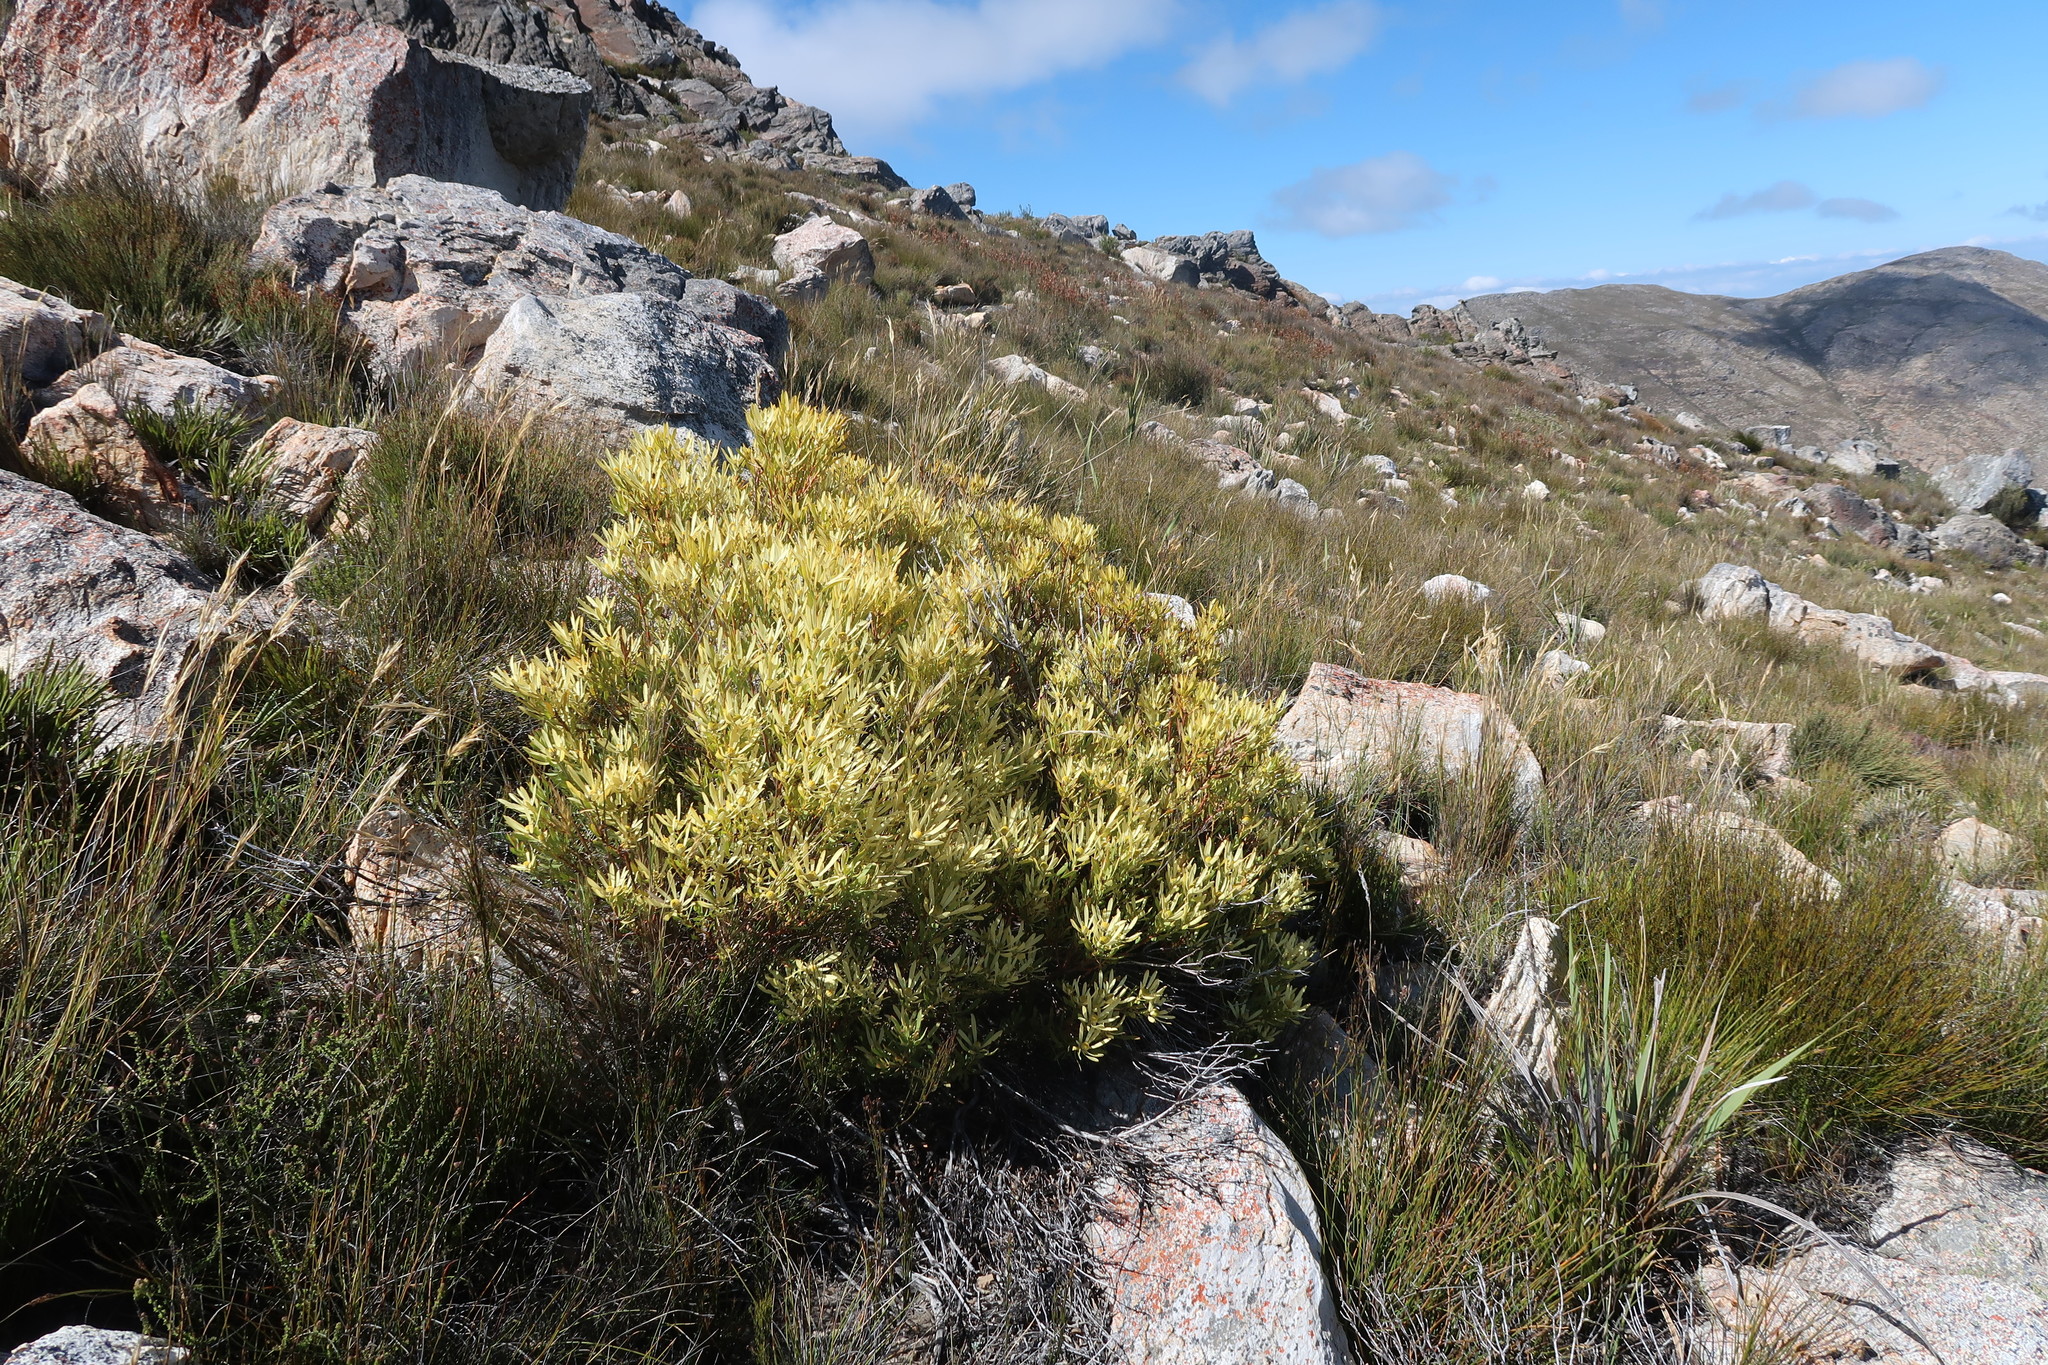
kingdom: Plantae
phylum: Tracheophyta
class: Magnoliopsida
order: Proteales
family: Proteaceae
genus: Leucadendron
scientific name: Leucadendron salignum
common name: Common sunshine conebush
